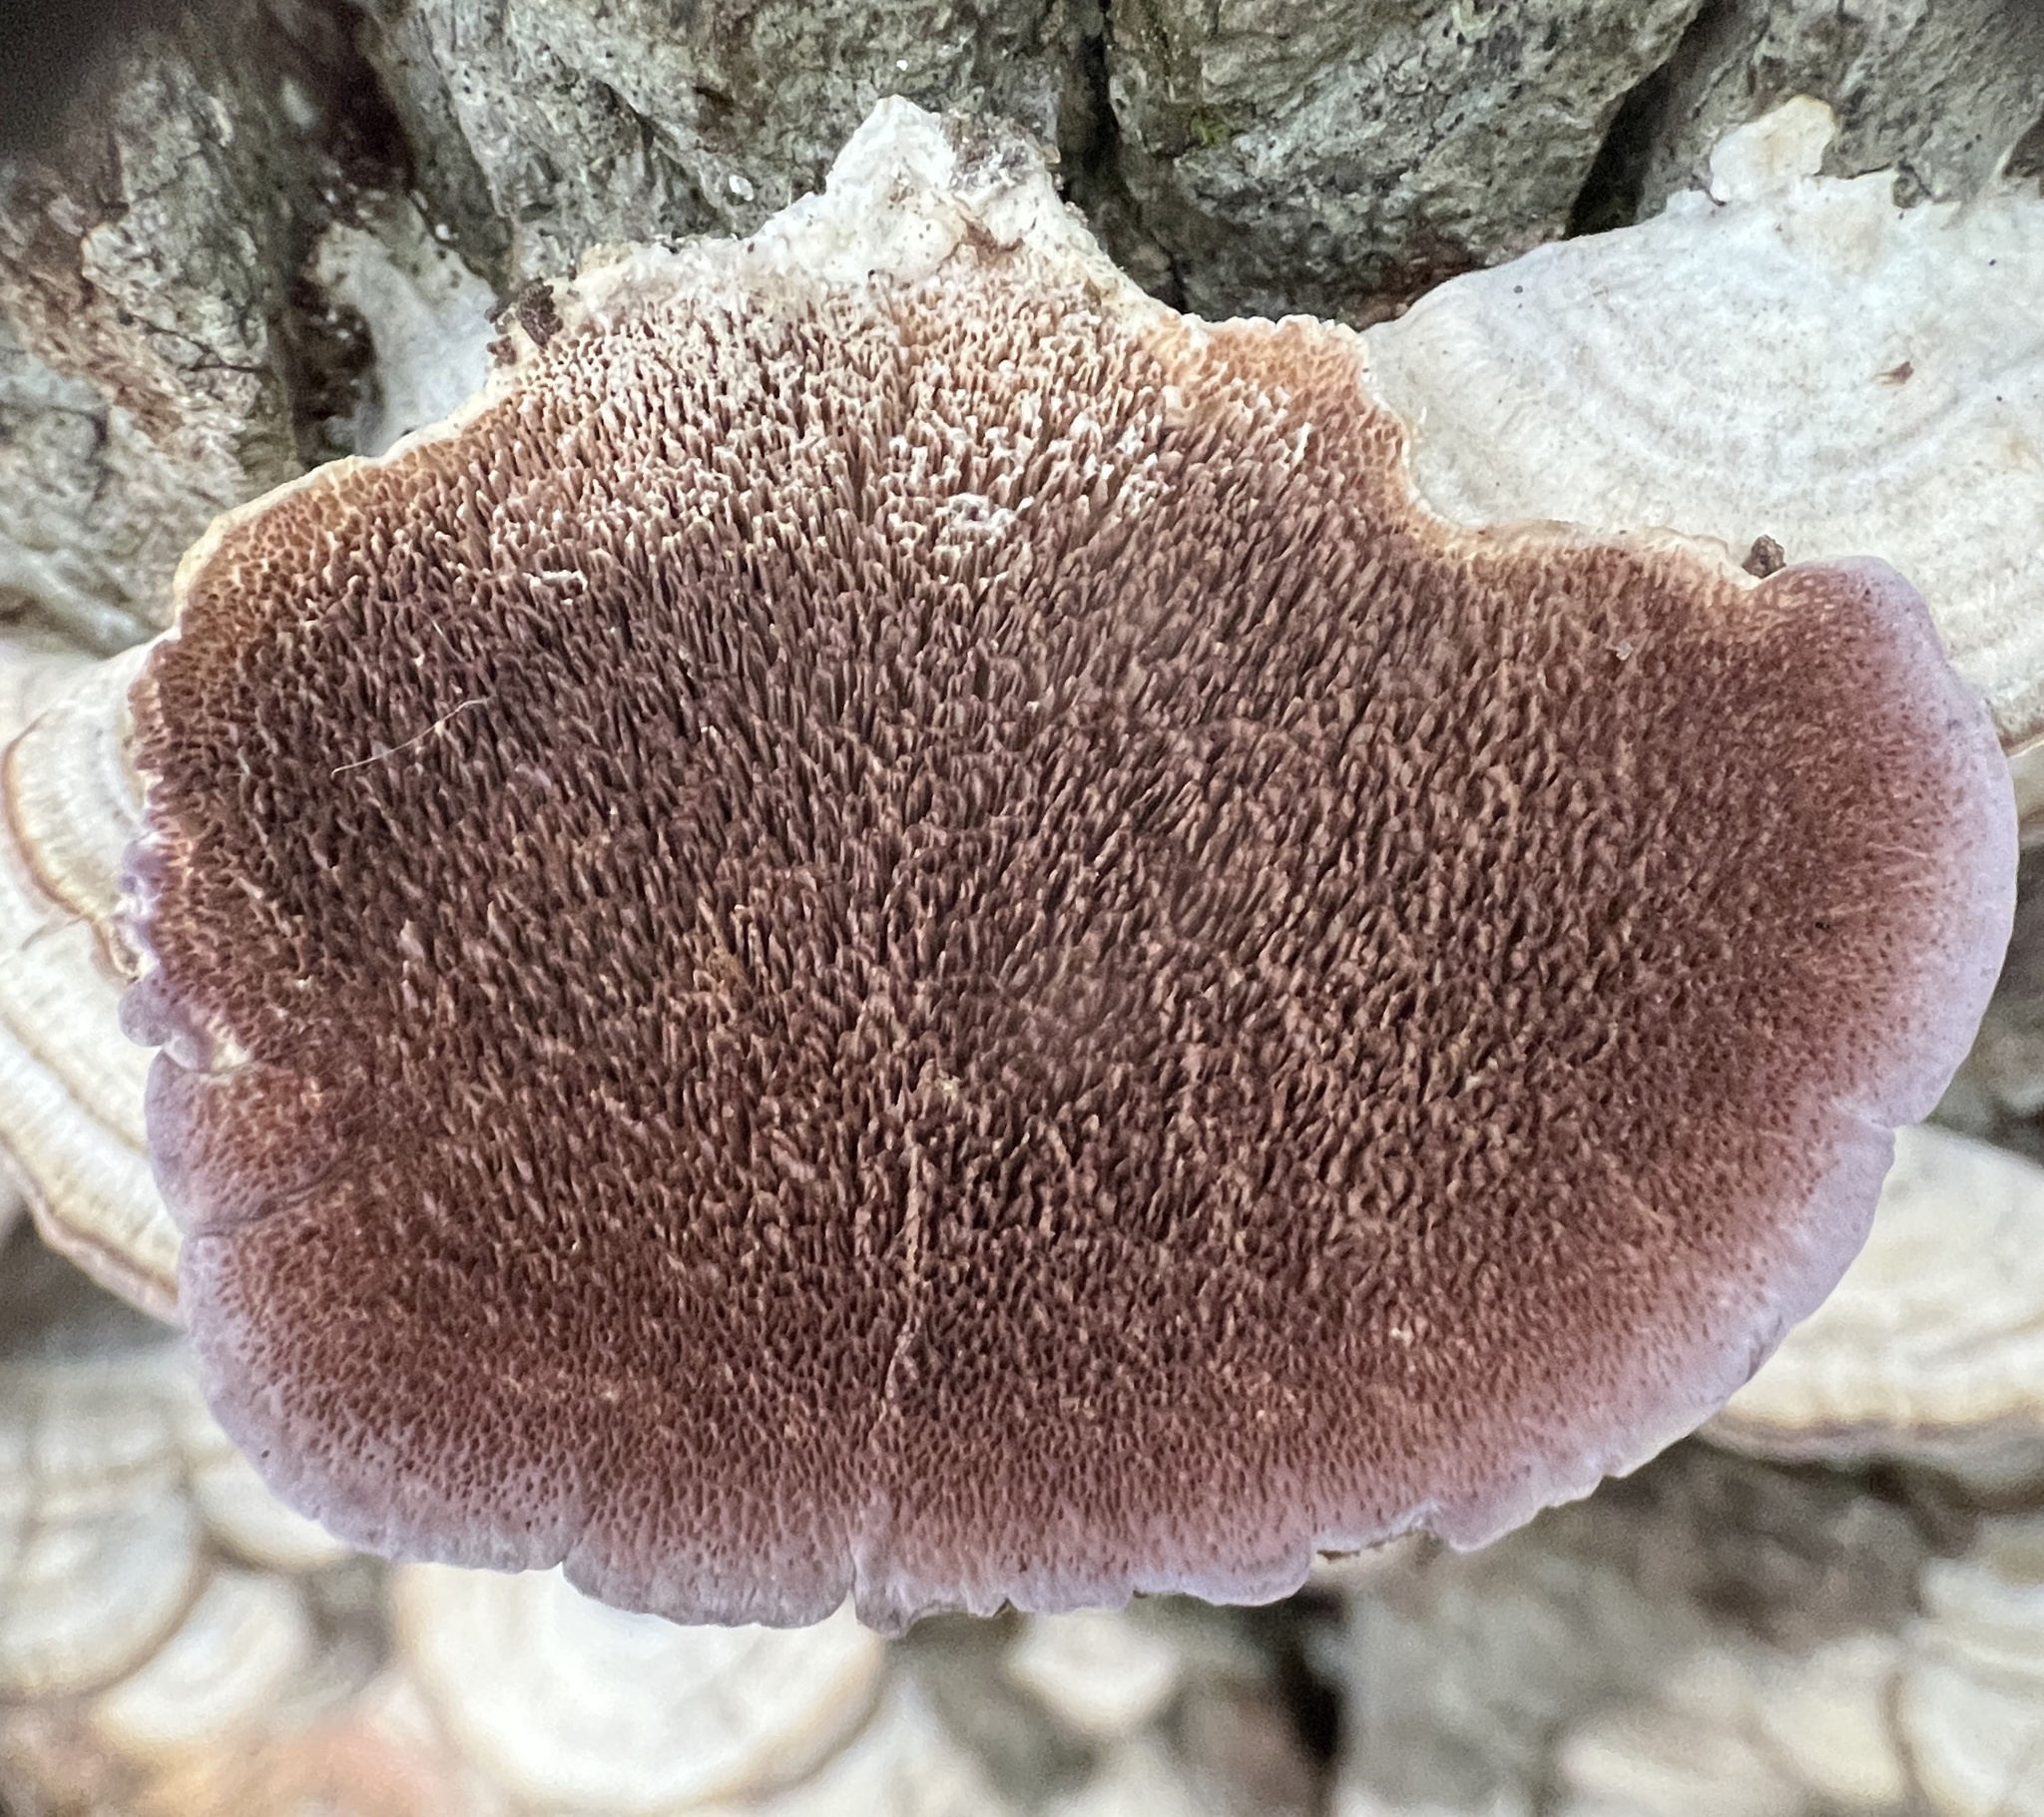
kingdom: Fungi
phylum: Basidiomycota
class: Agaricomycetes
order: Hymenochaetales
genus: Trichaptum
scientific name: Trichaptum biforme
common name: Violet-toothed polypore
